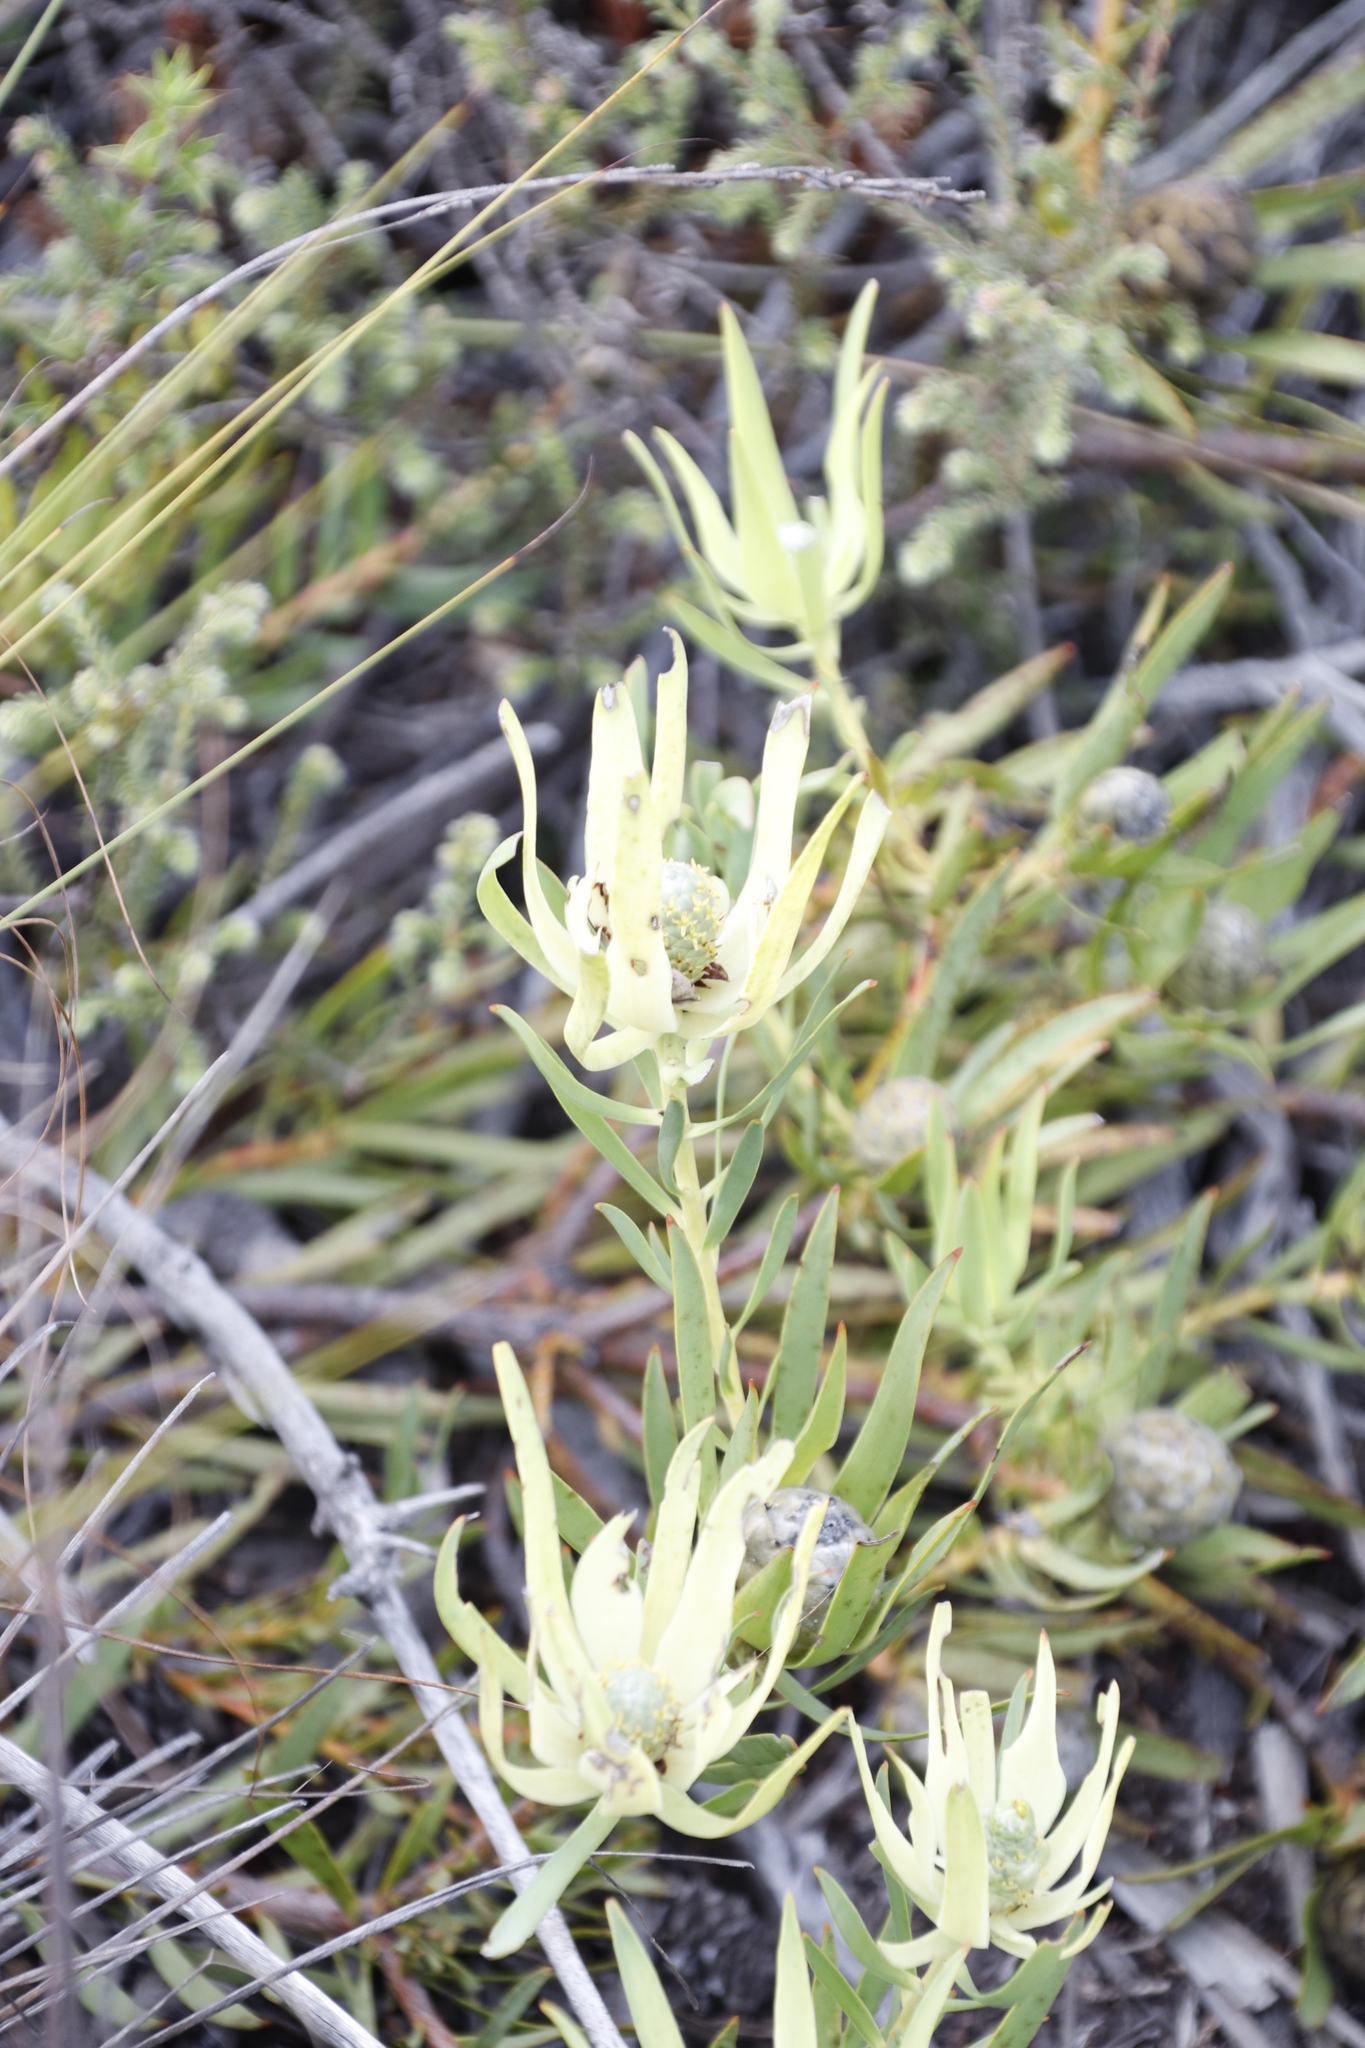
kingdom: Plantae
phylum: Tracheophyta
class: Magnoliopsida
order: Proteales
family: Proteaceae
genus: Leucadendron
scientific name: Leucadendron salignum
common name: Common sunshine conebush
